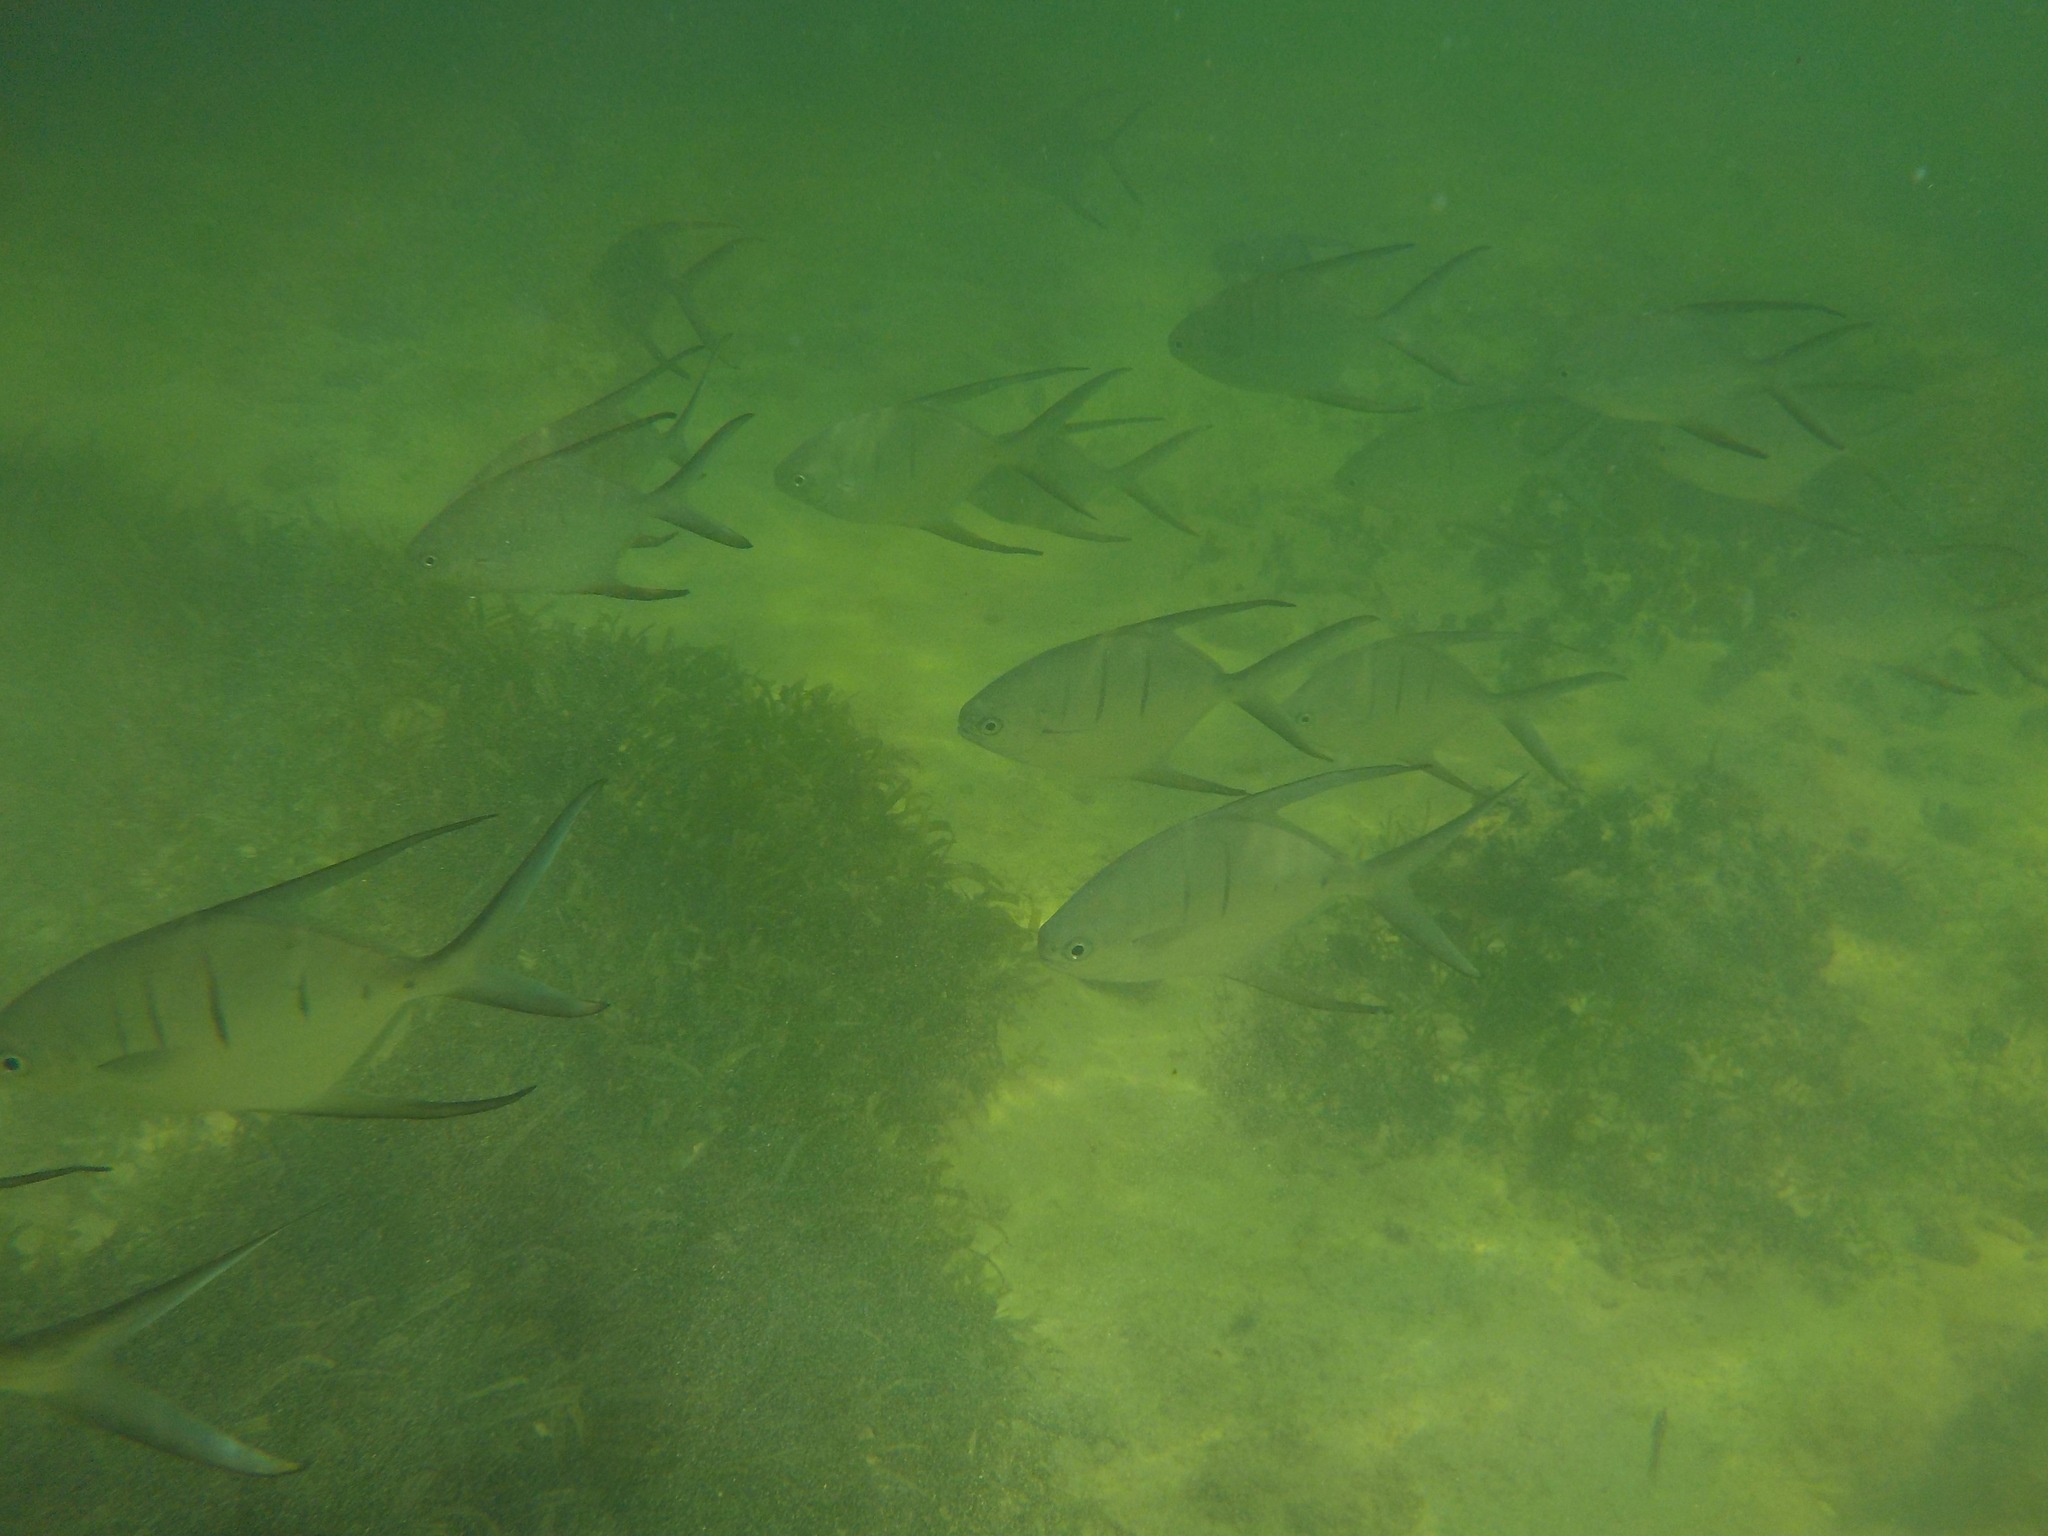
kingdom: Animalia
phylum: Chordata
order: Perciformes
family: Carangidae
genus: Trachinotus
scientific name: Trachinotus goodei
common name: Palometa
